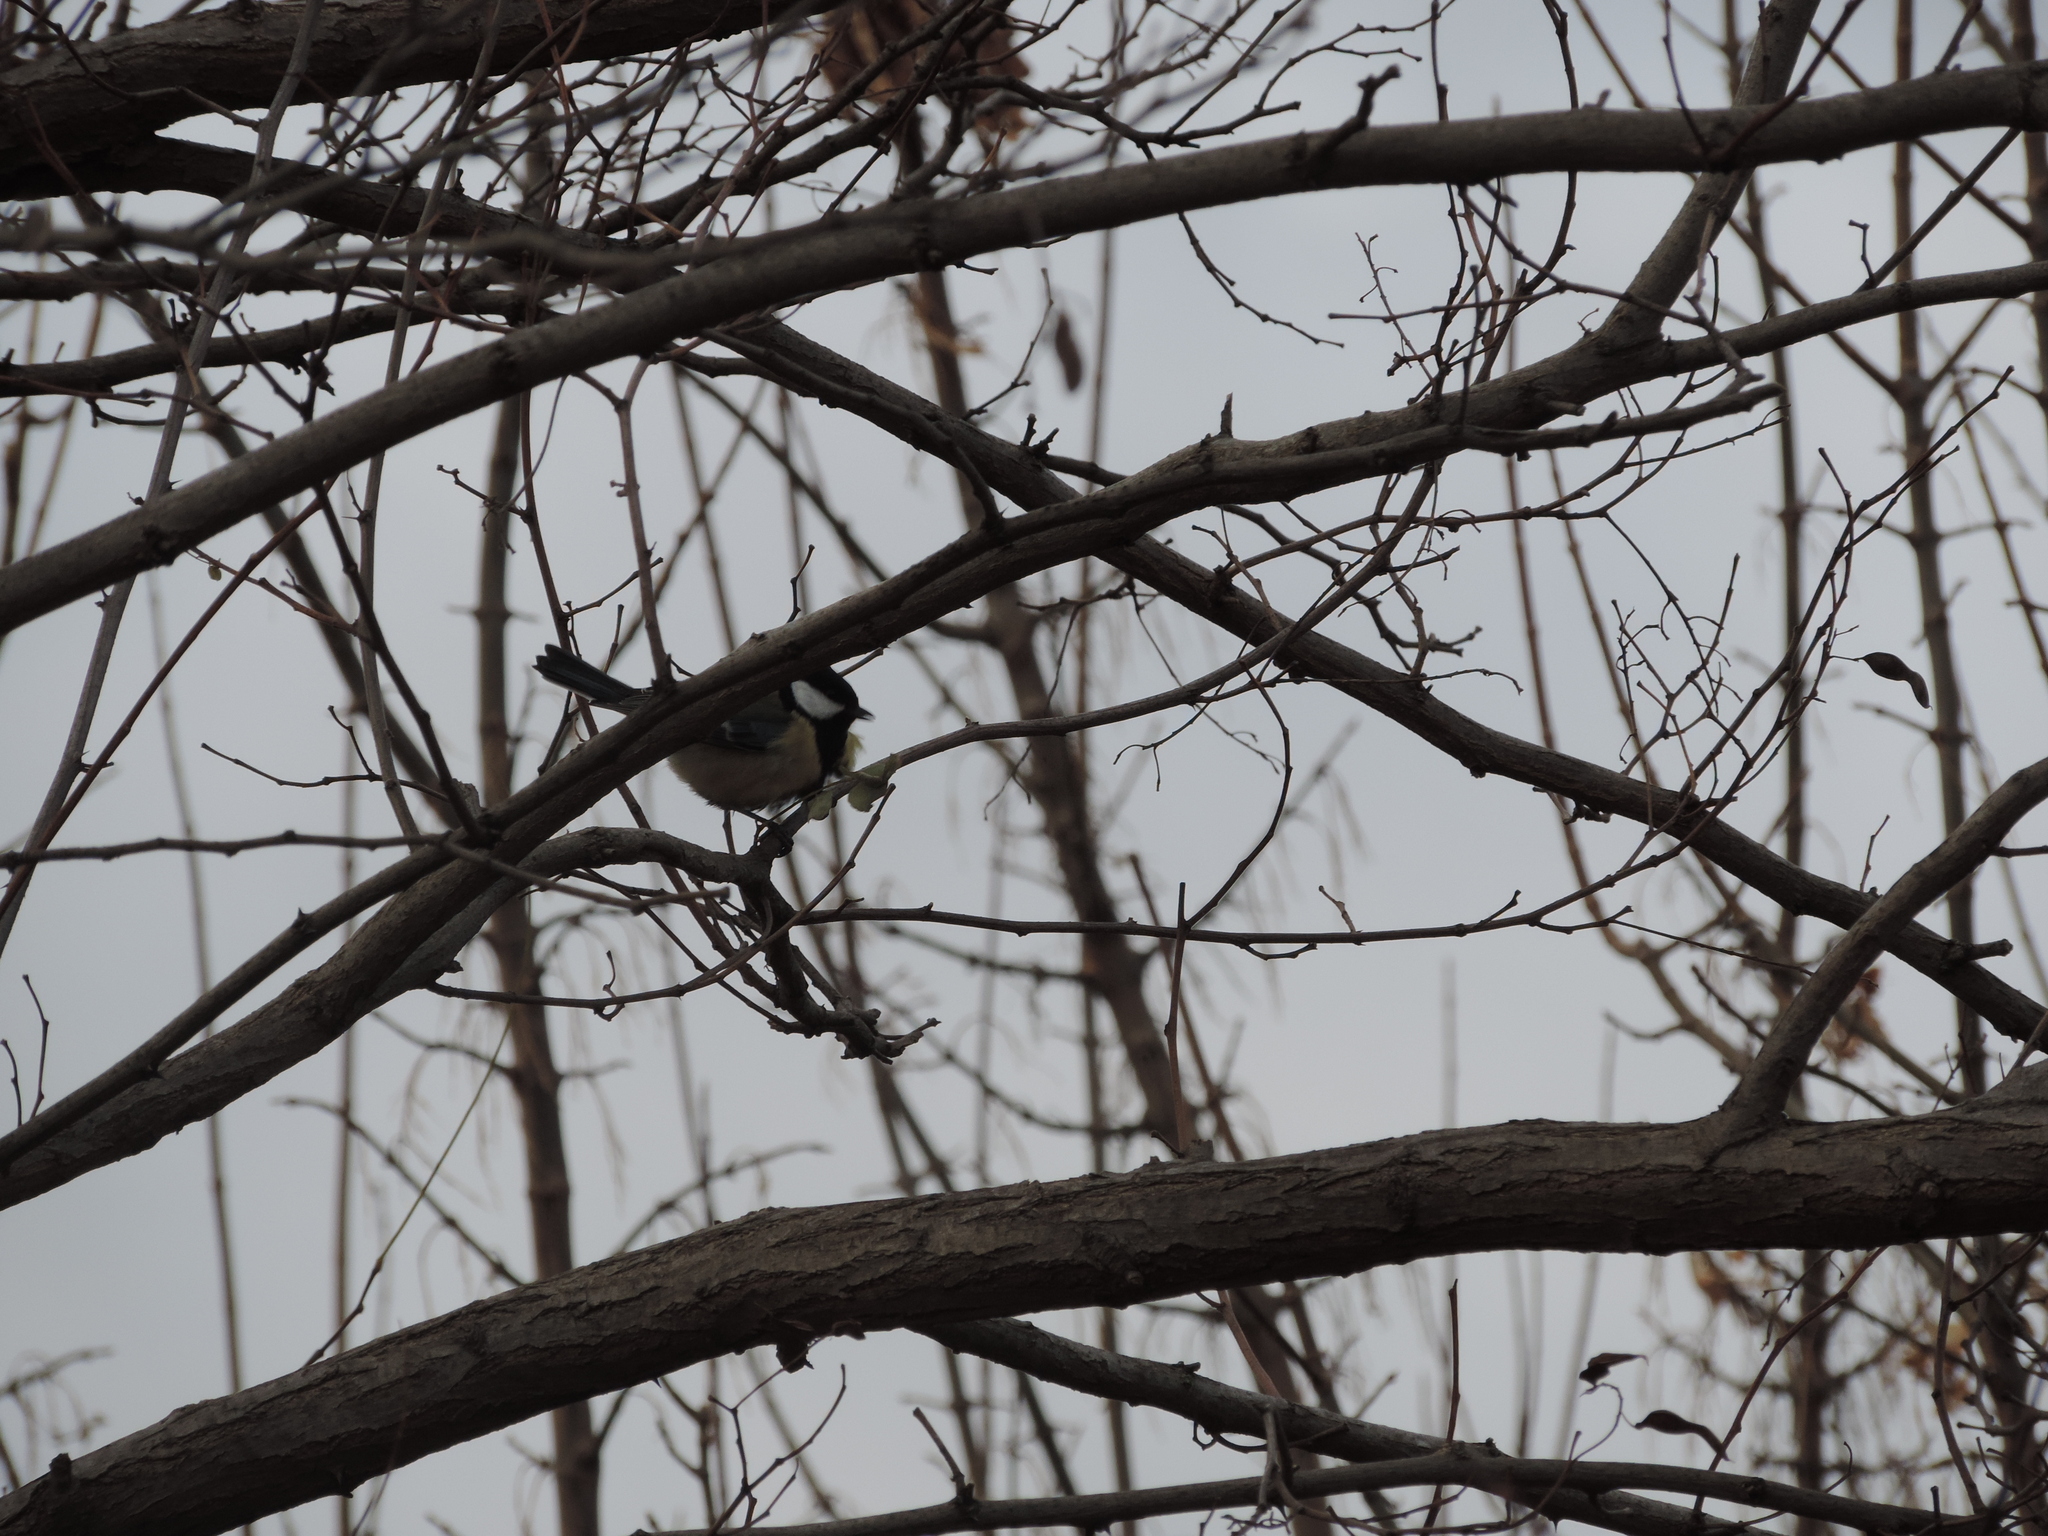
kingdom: Animalia
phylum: Chordata
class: Aves
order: Passeriformes
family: Paridae
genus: Parus
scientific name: Parus major
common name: Great tit
